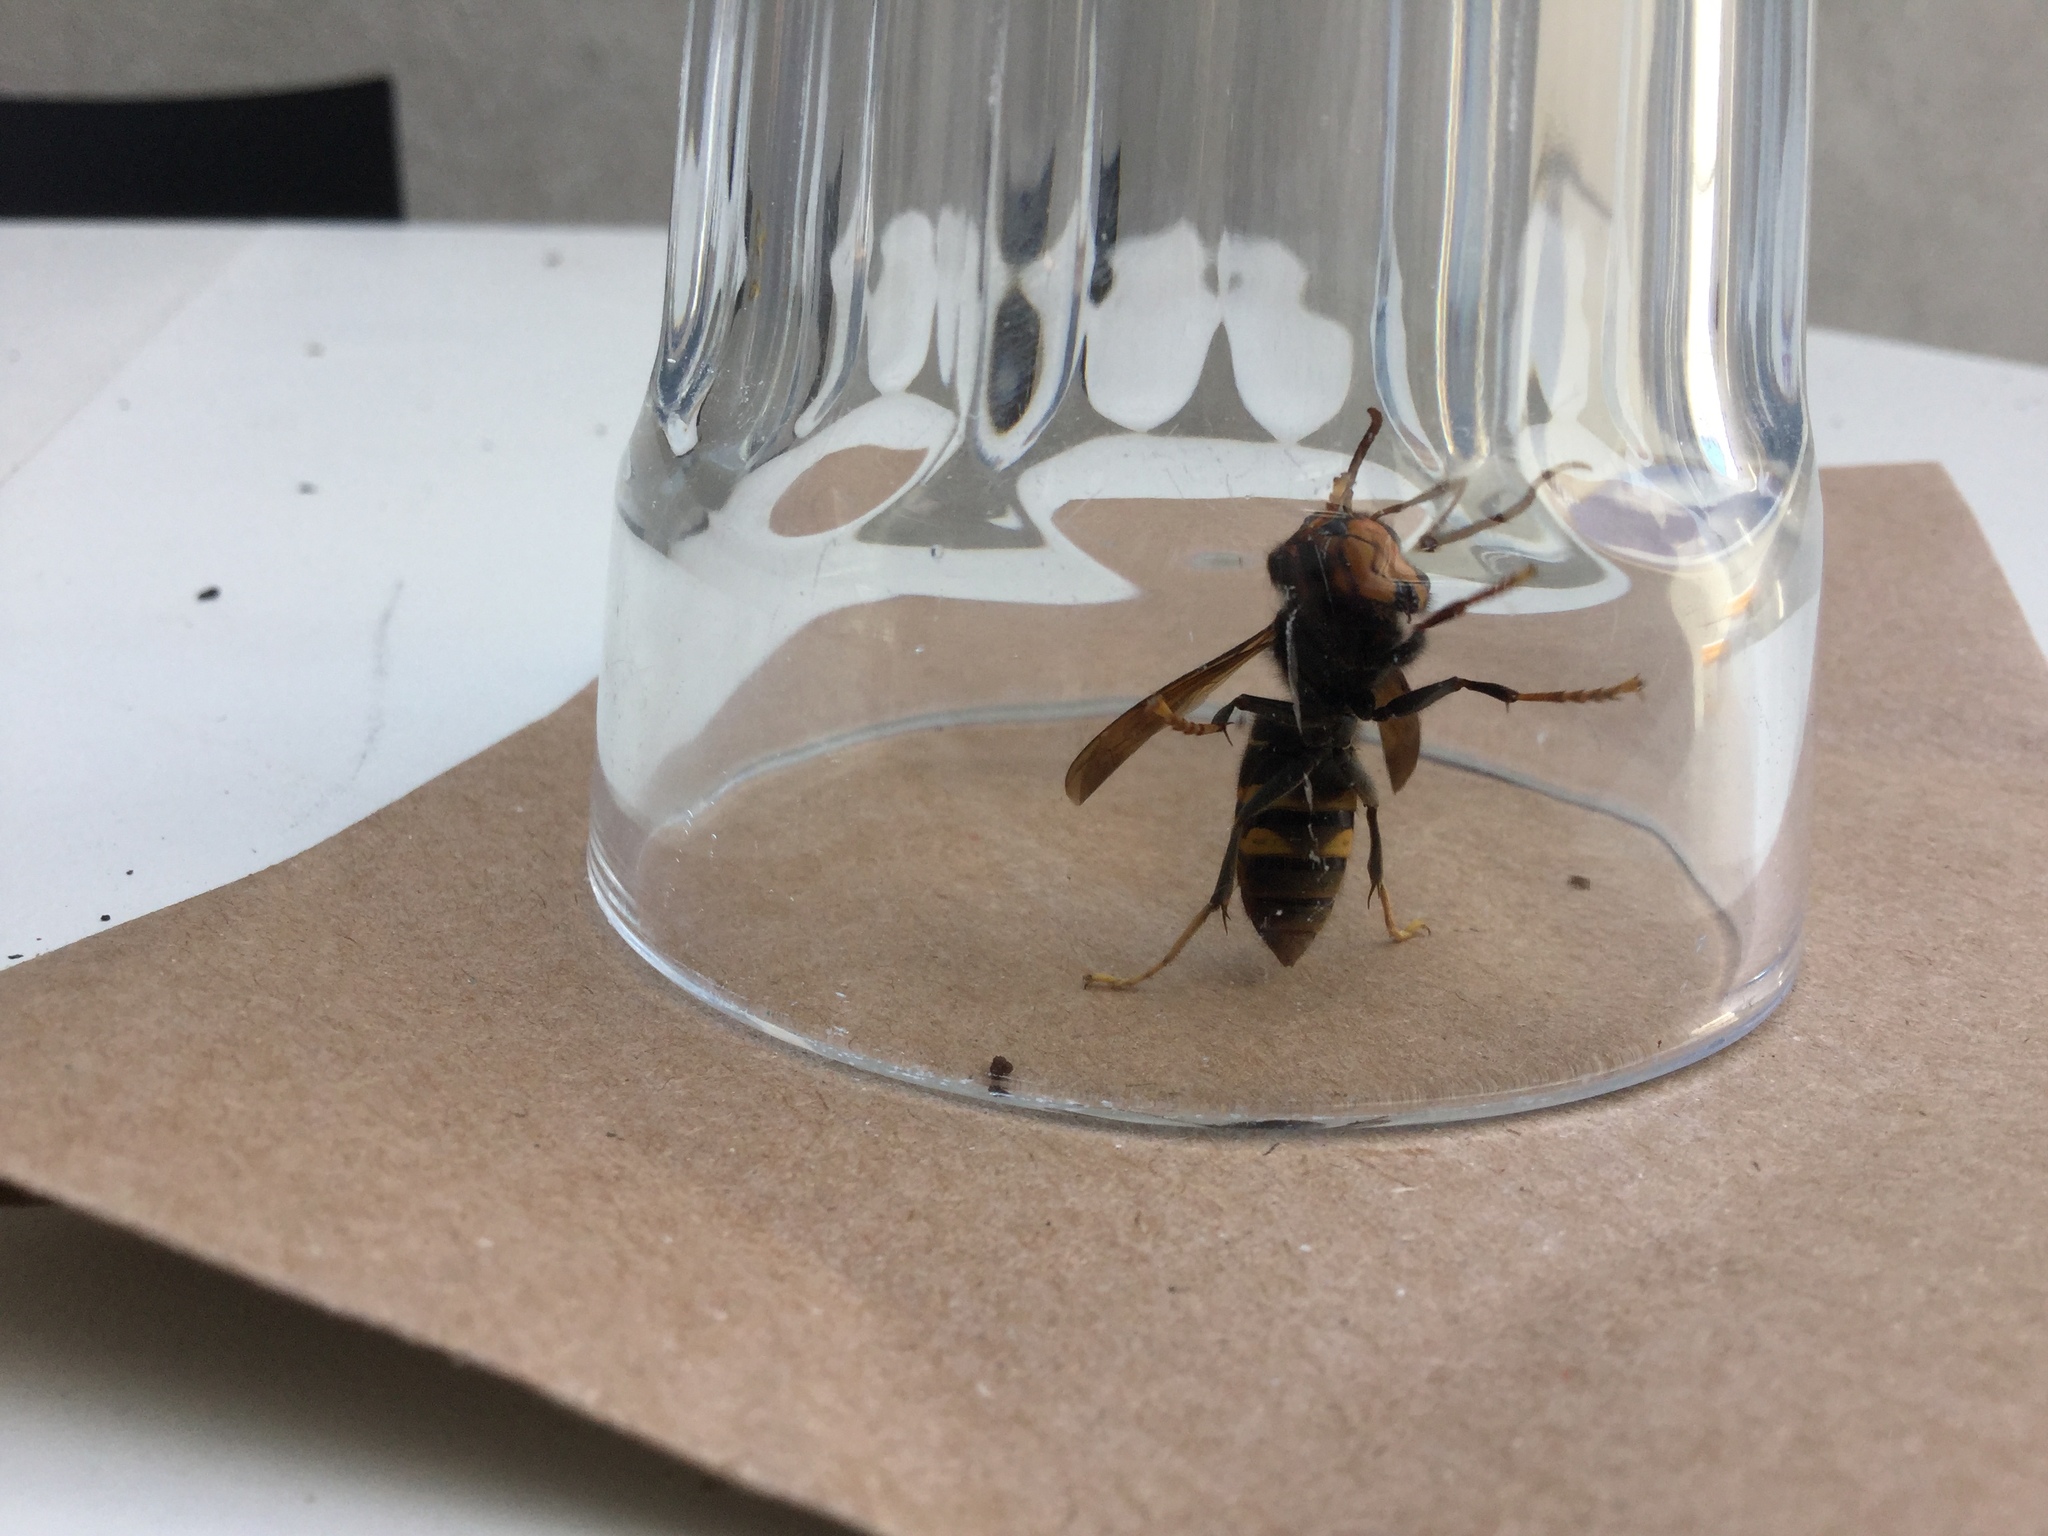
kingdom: Animalia
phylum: Arthropoda
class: Insecta
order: Hymenoptera
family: Vespidae
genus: Vespa
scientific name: Vespa velutina
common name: Asian hornet
